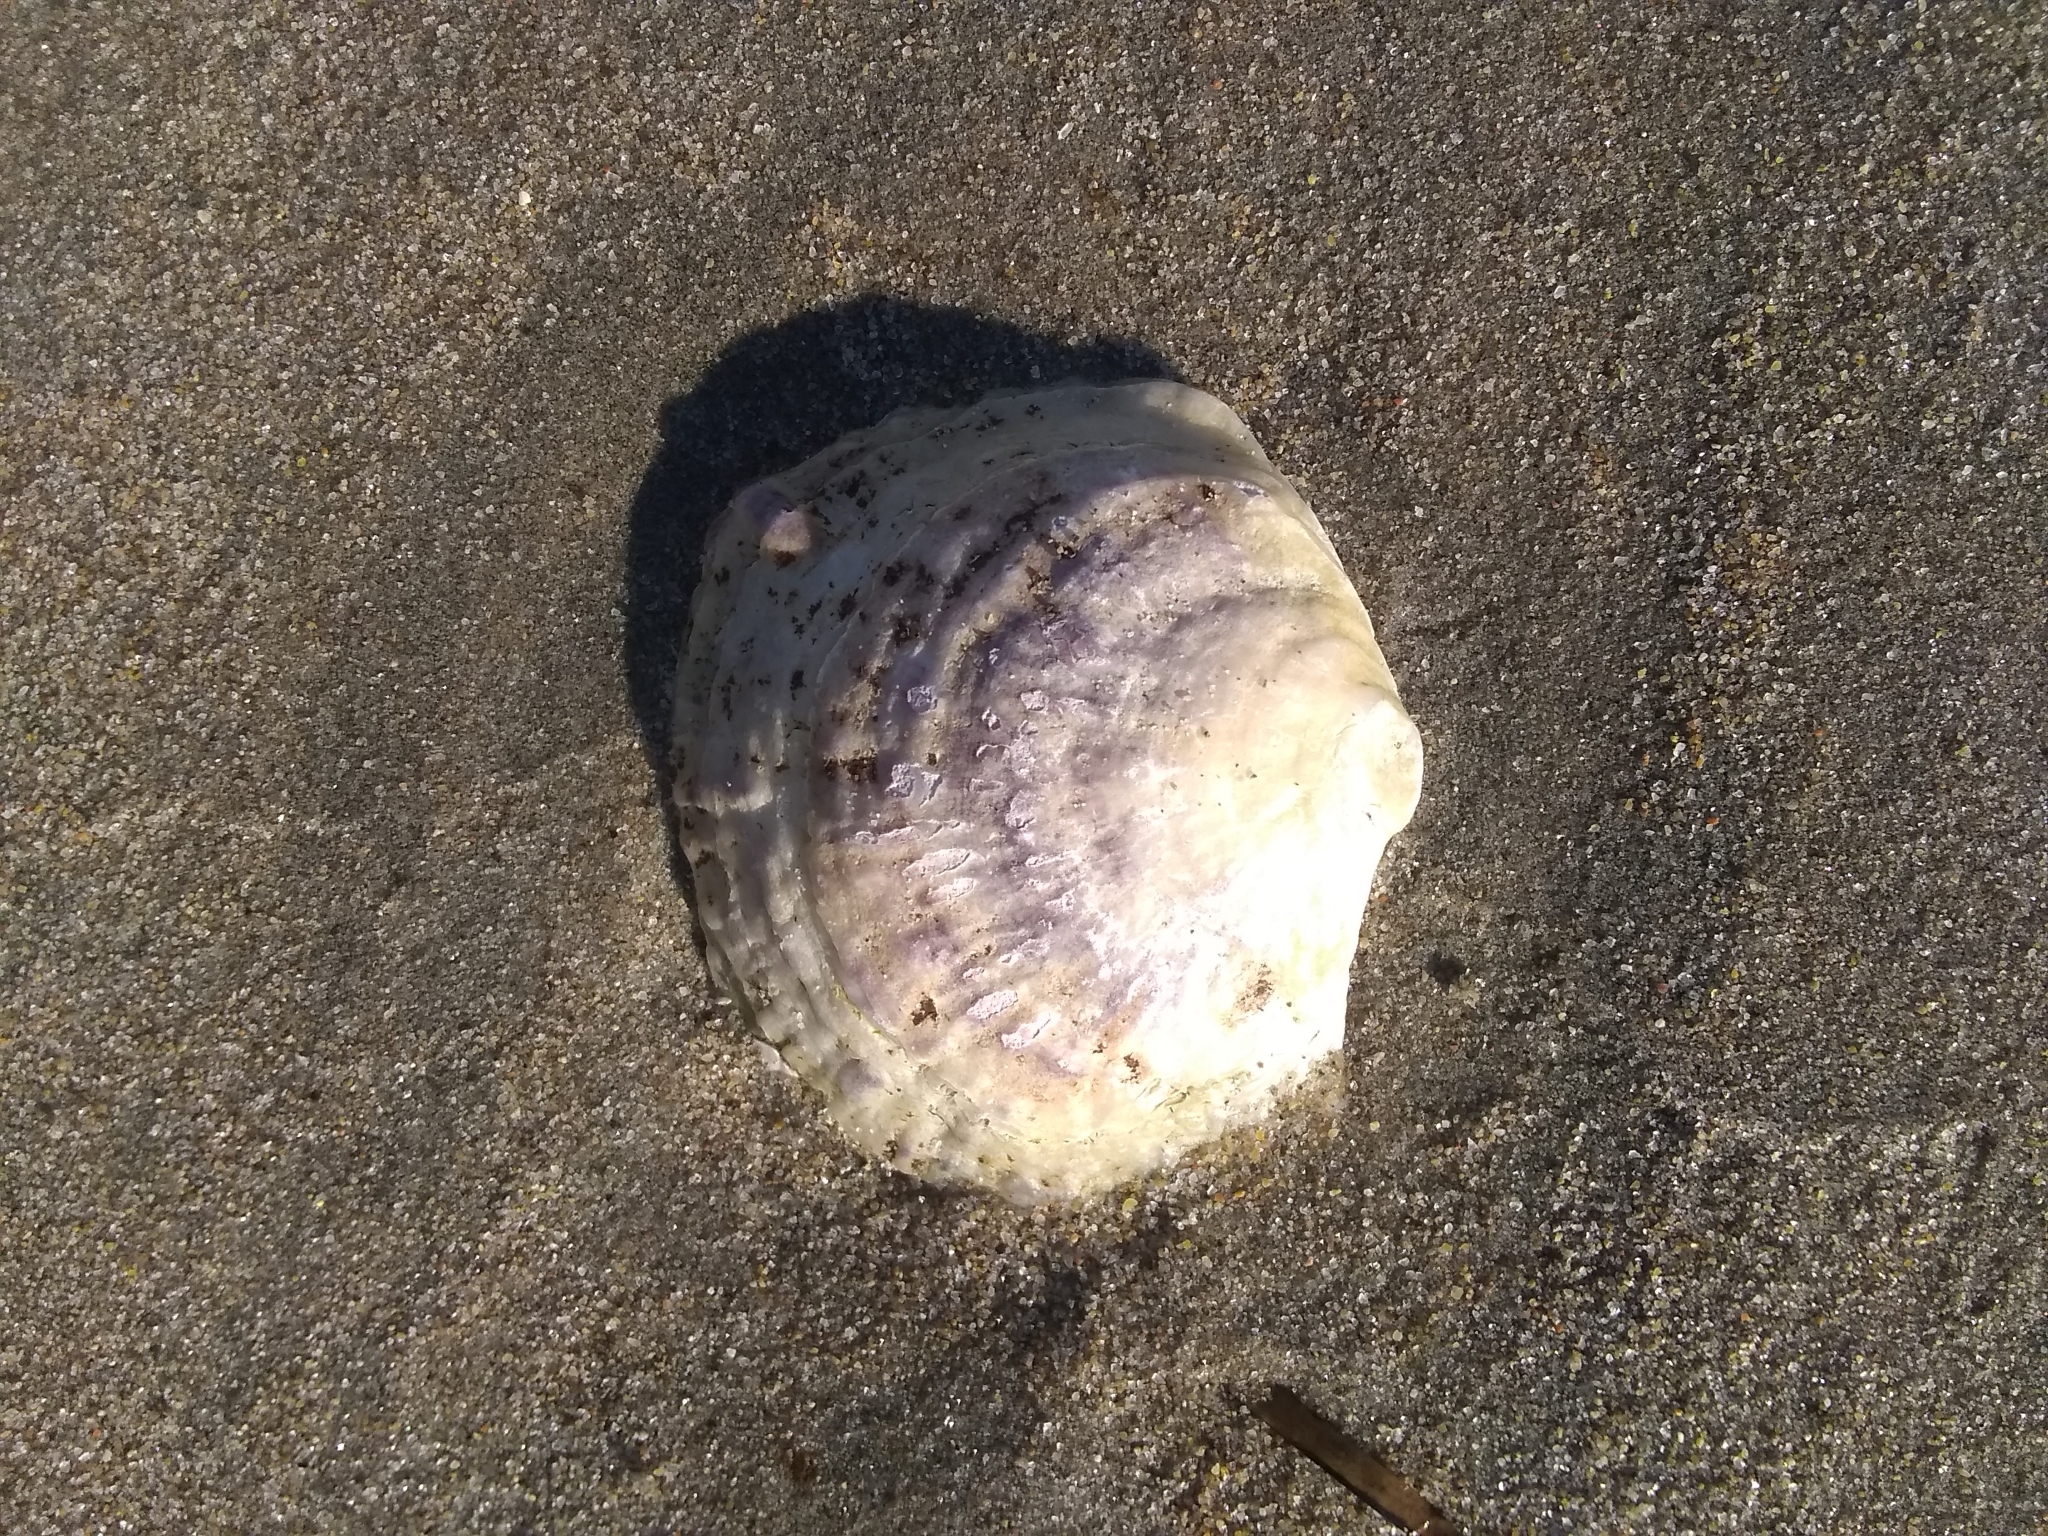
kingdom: Animalia
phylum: Mollusca
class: Bivalvia
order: Ostreida
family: Ostreidae
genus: Ostrea
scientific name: Ostrea edulis
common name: Flat oyster
